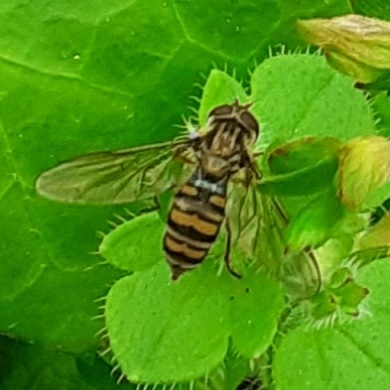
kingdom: Animalia
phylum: Arthropoda
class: Insecta
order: Diptera
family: Syrphidae
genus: Episyrphus
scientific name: Episyrphus balteatus
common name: Marmalade hoverfly
